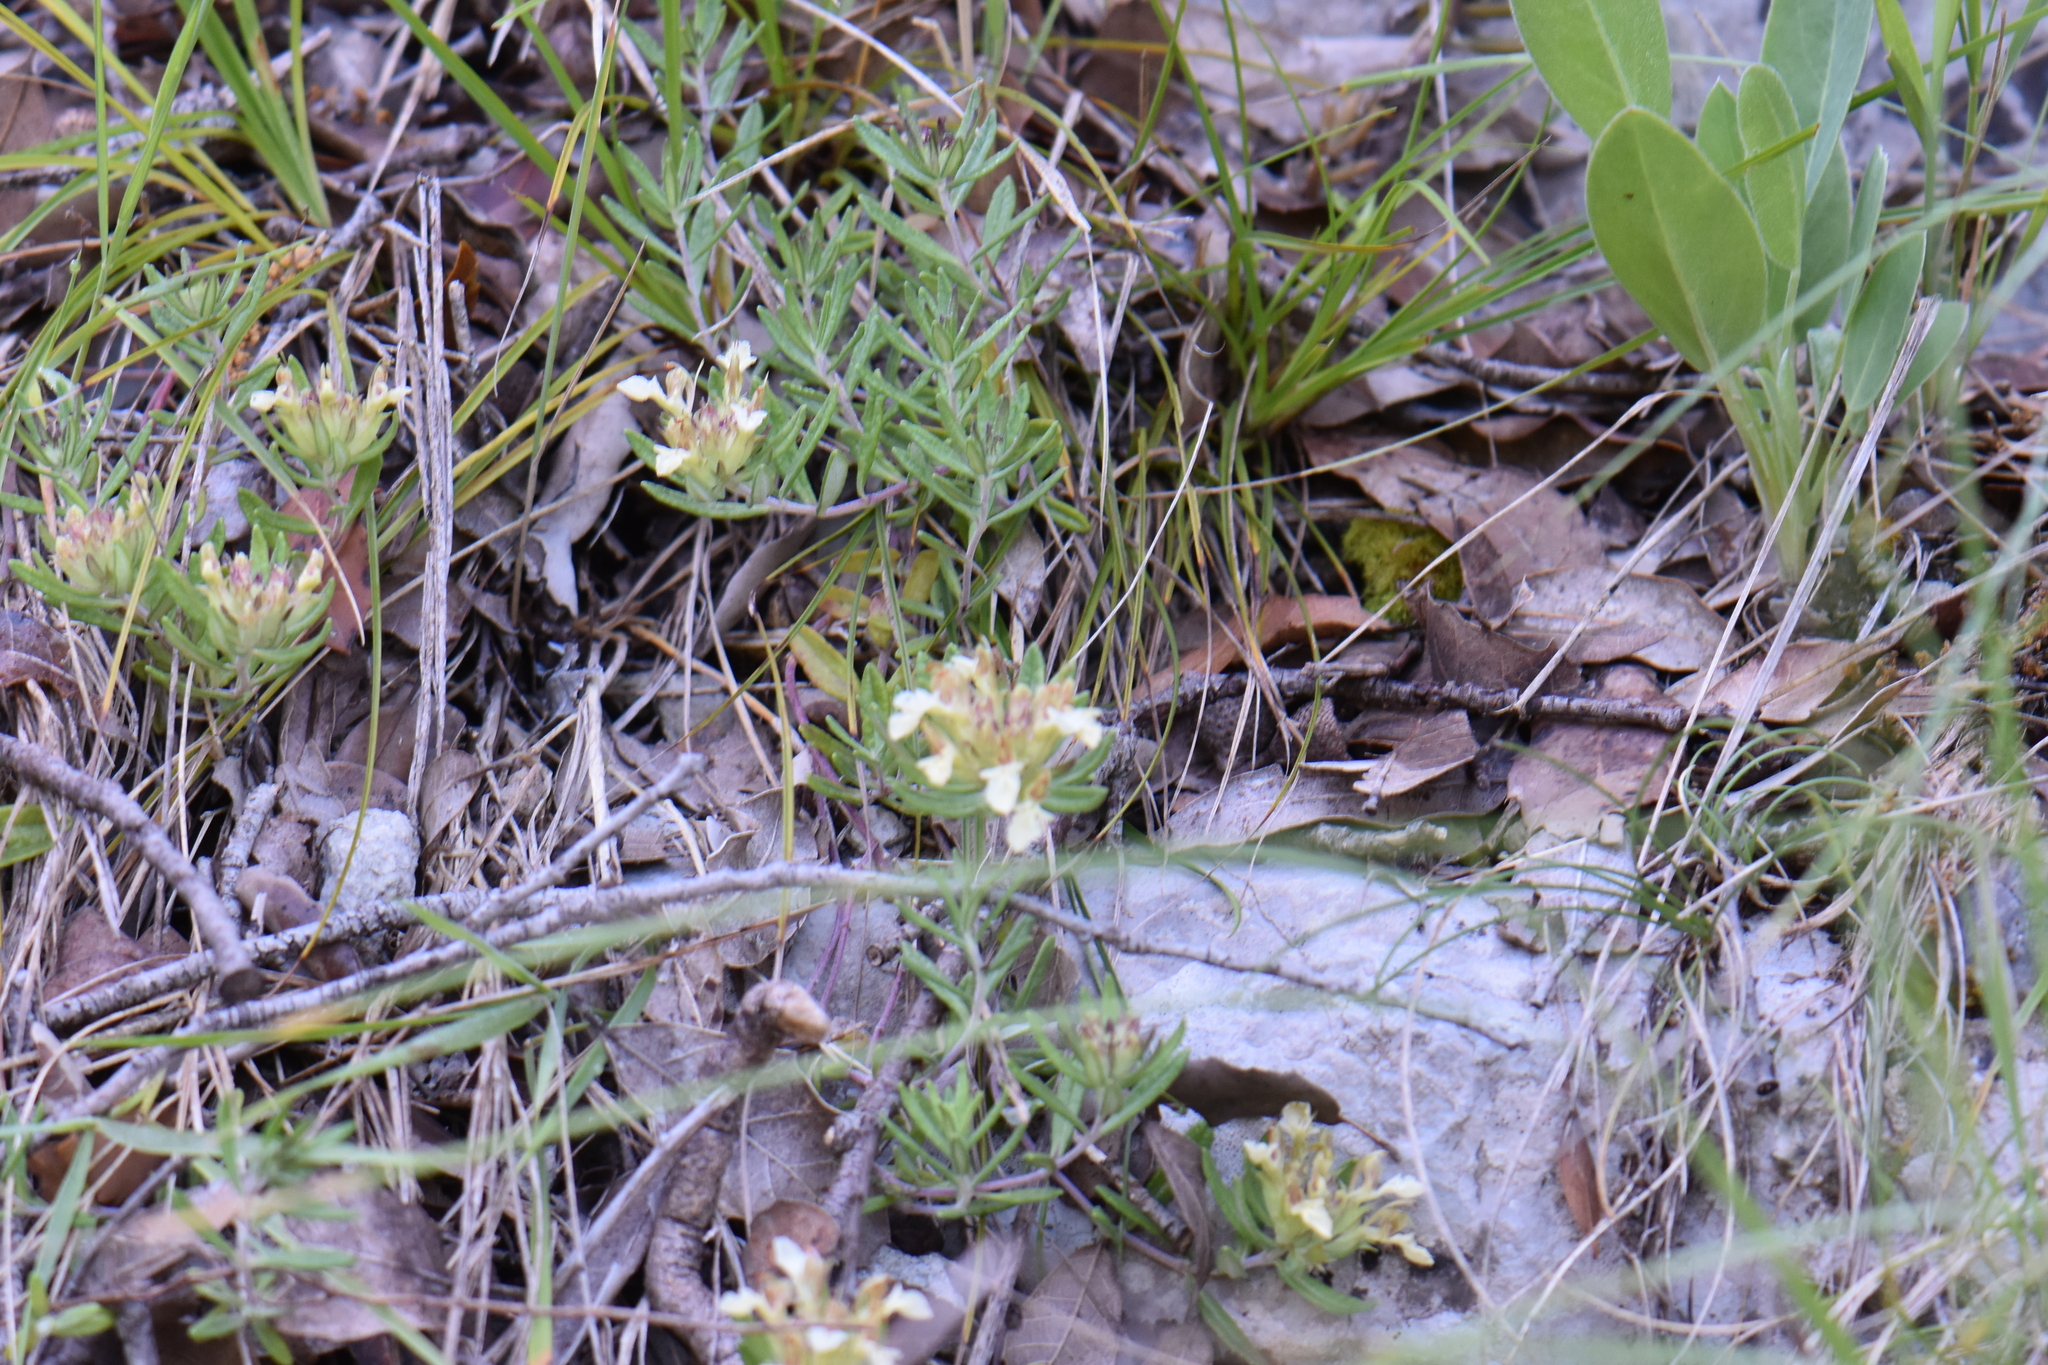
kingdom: Plantae
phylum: Tracheophyta
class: Magnoliopsida
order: Lamiales
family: Lamiaceae
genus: Teucrium
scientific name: Teucrium montanum
